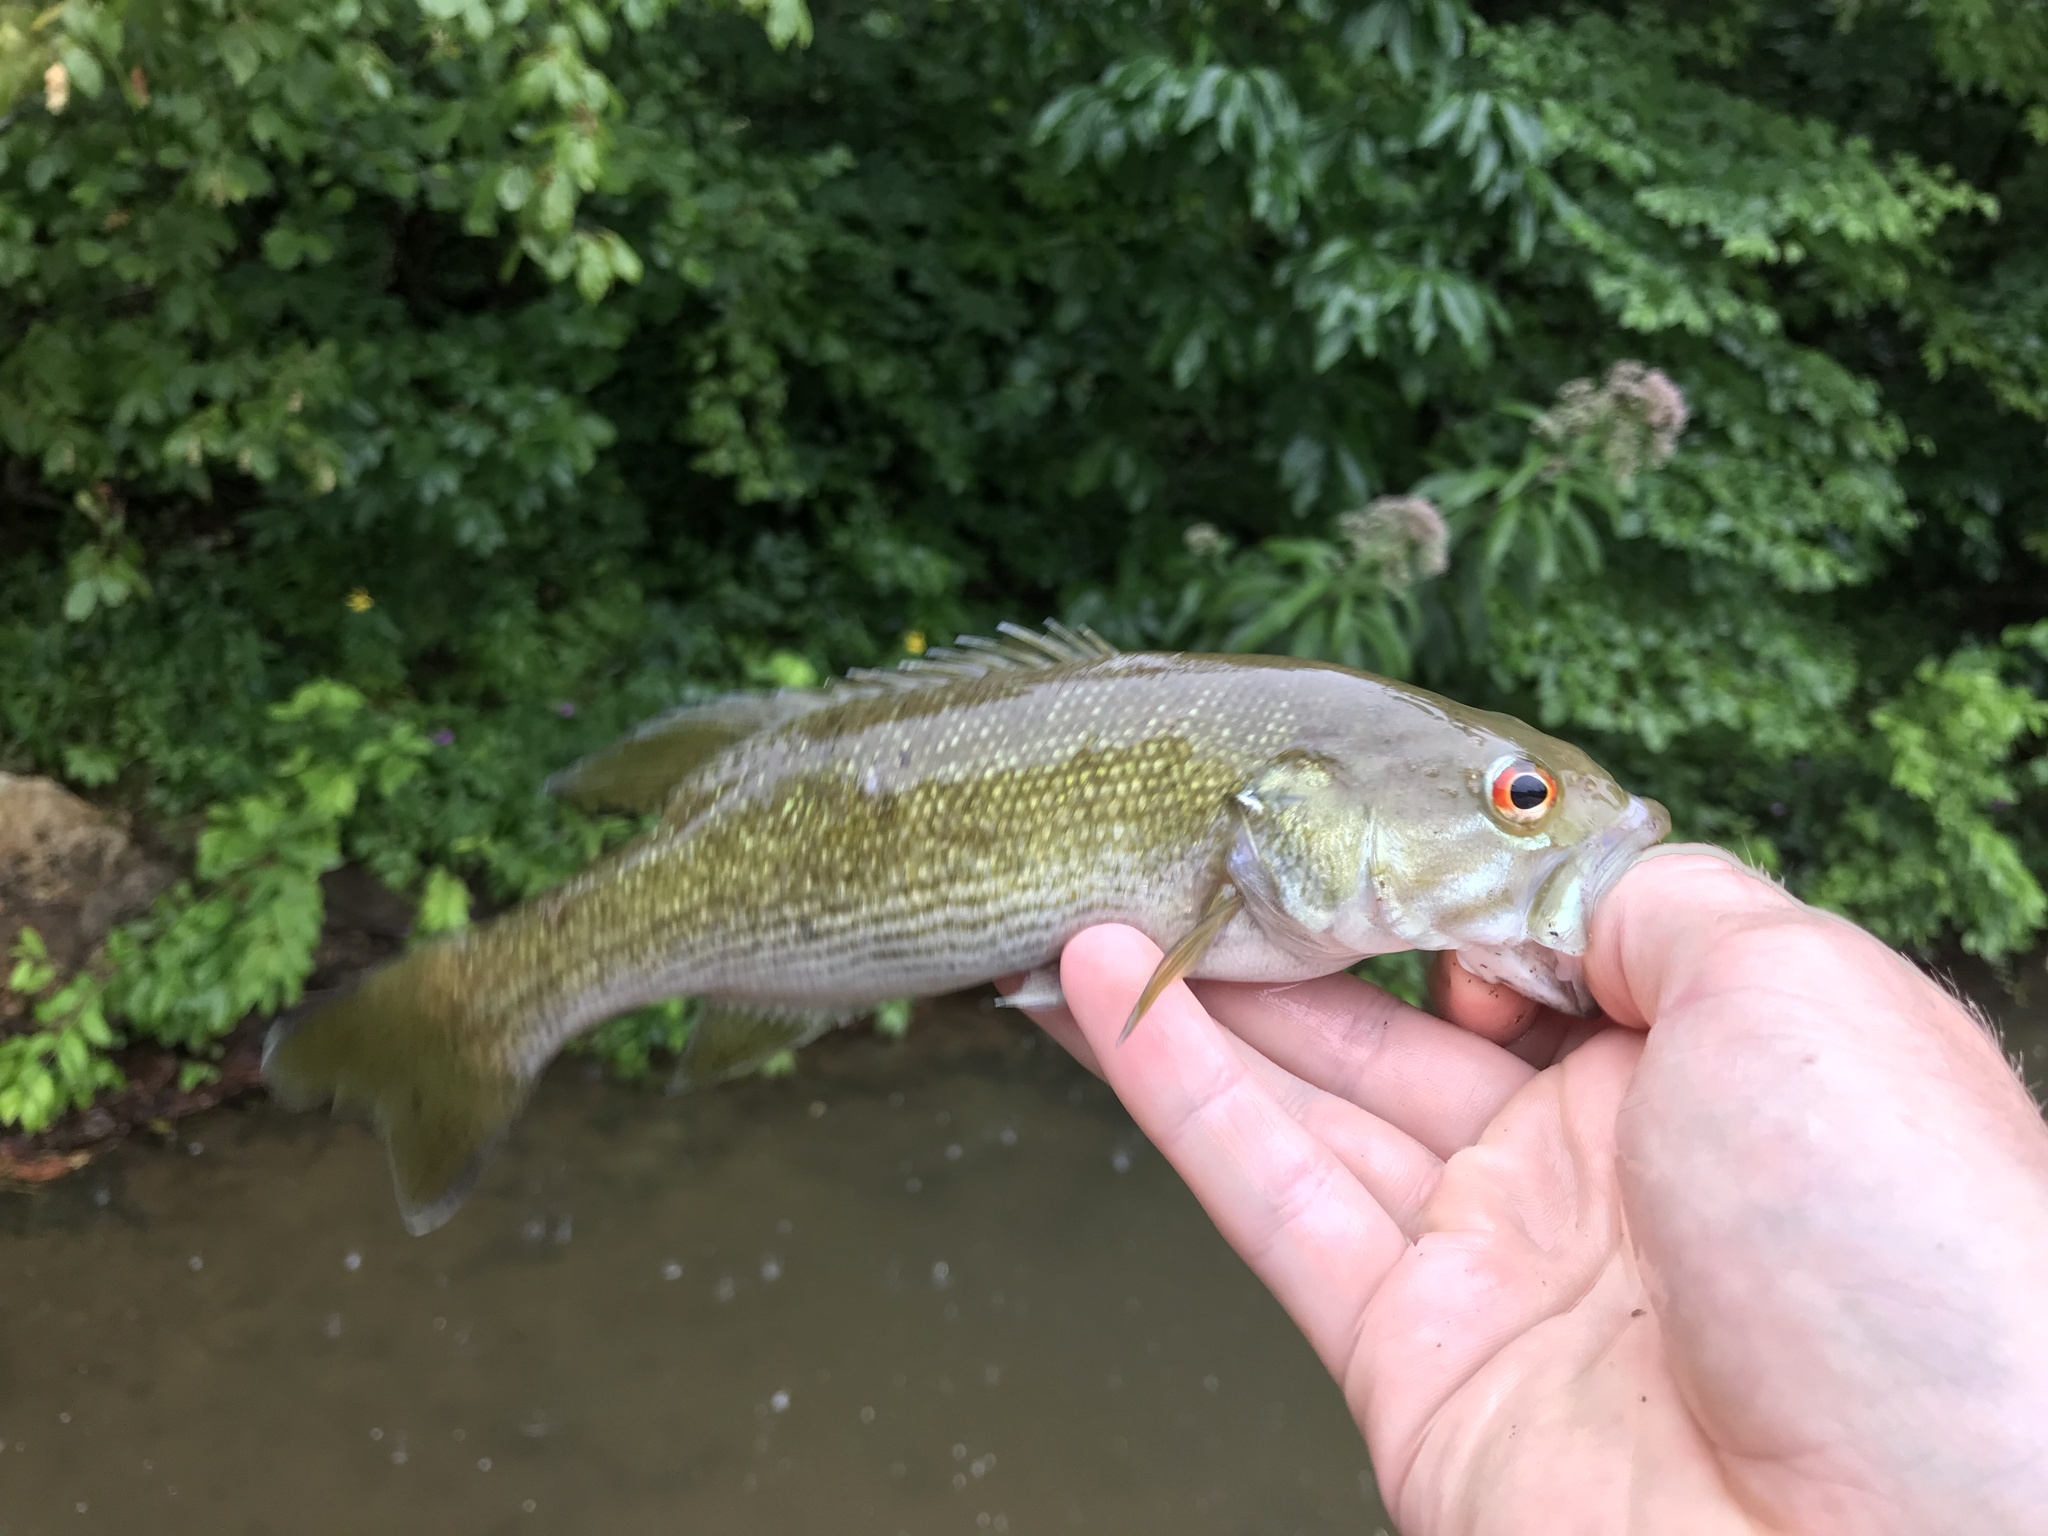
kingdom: Animalia
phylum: Chordata
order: Perciformes
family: Centrarchidae
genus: Micropterus
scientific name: Micropterus cahabae
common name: Cahaba bass
